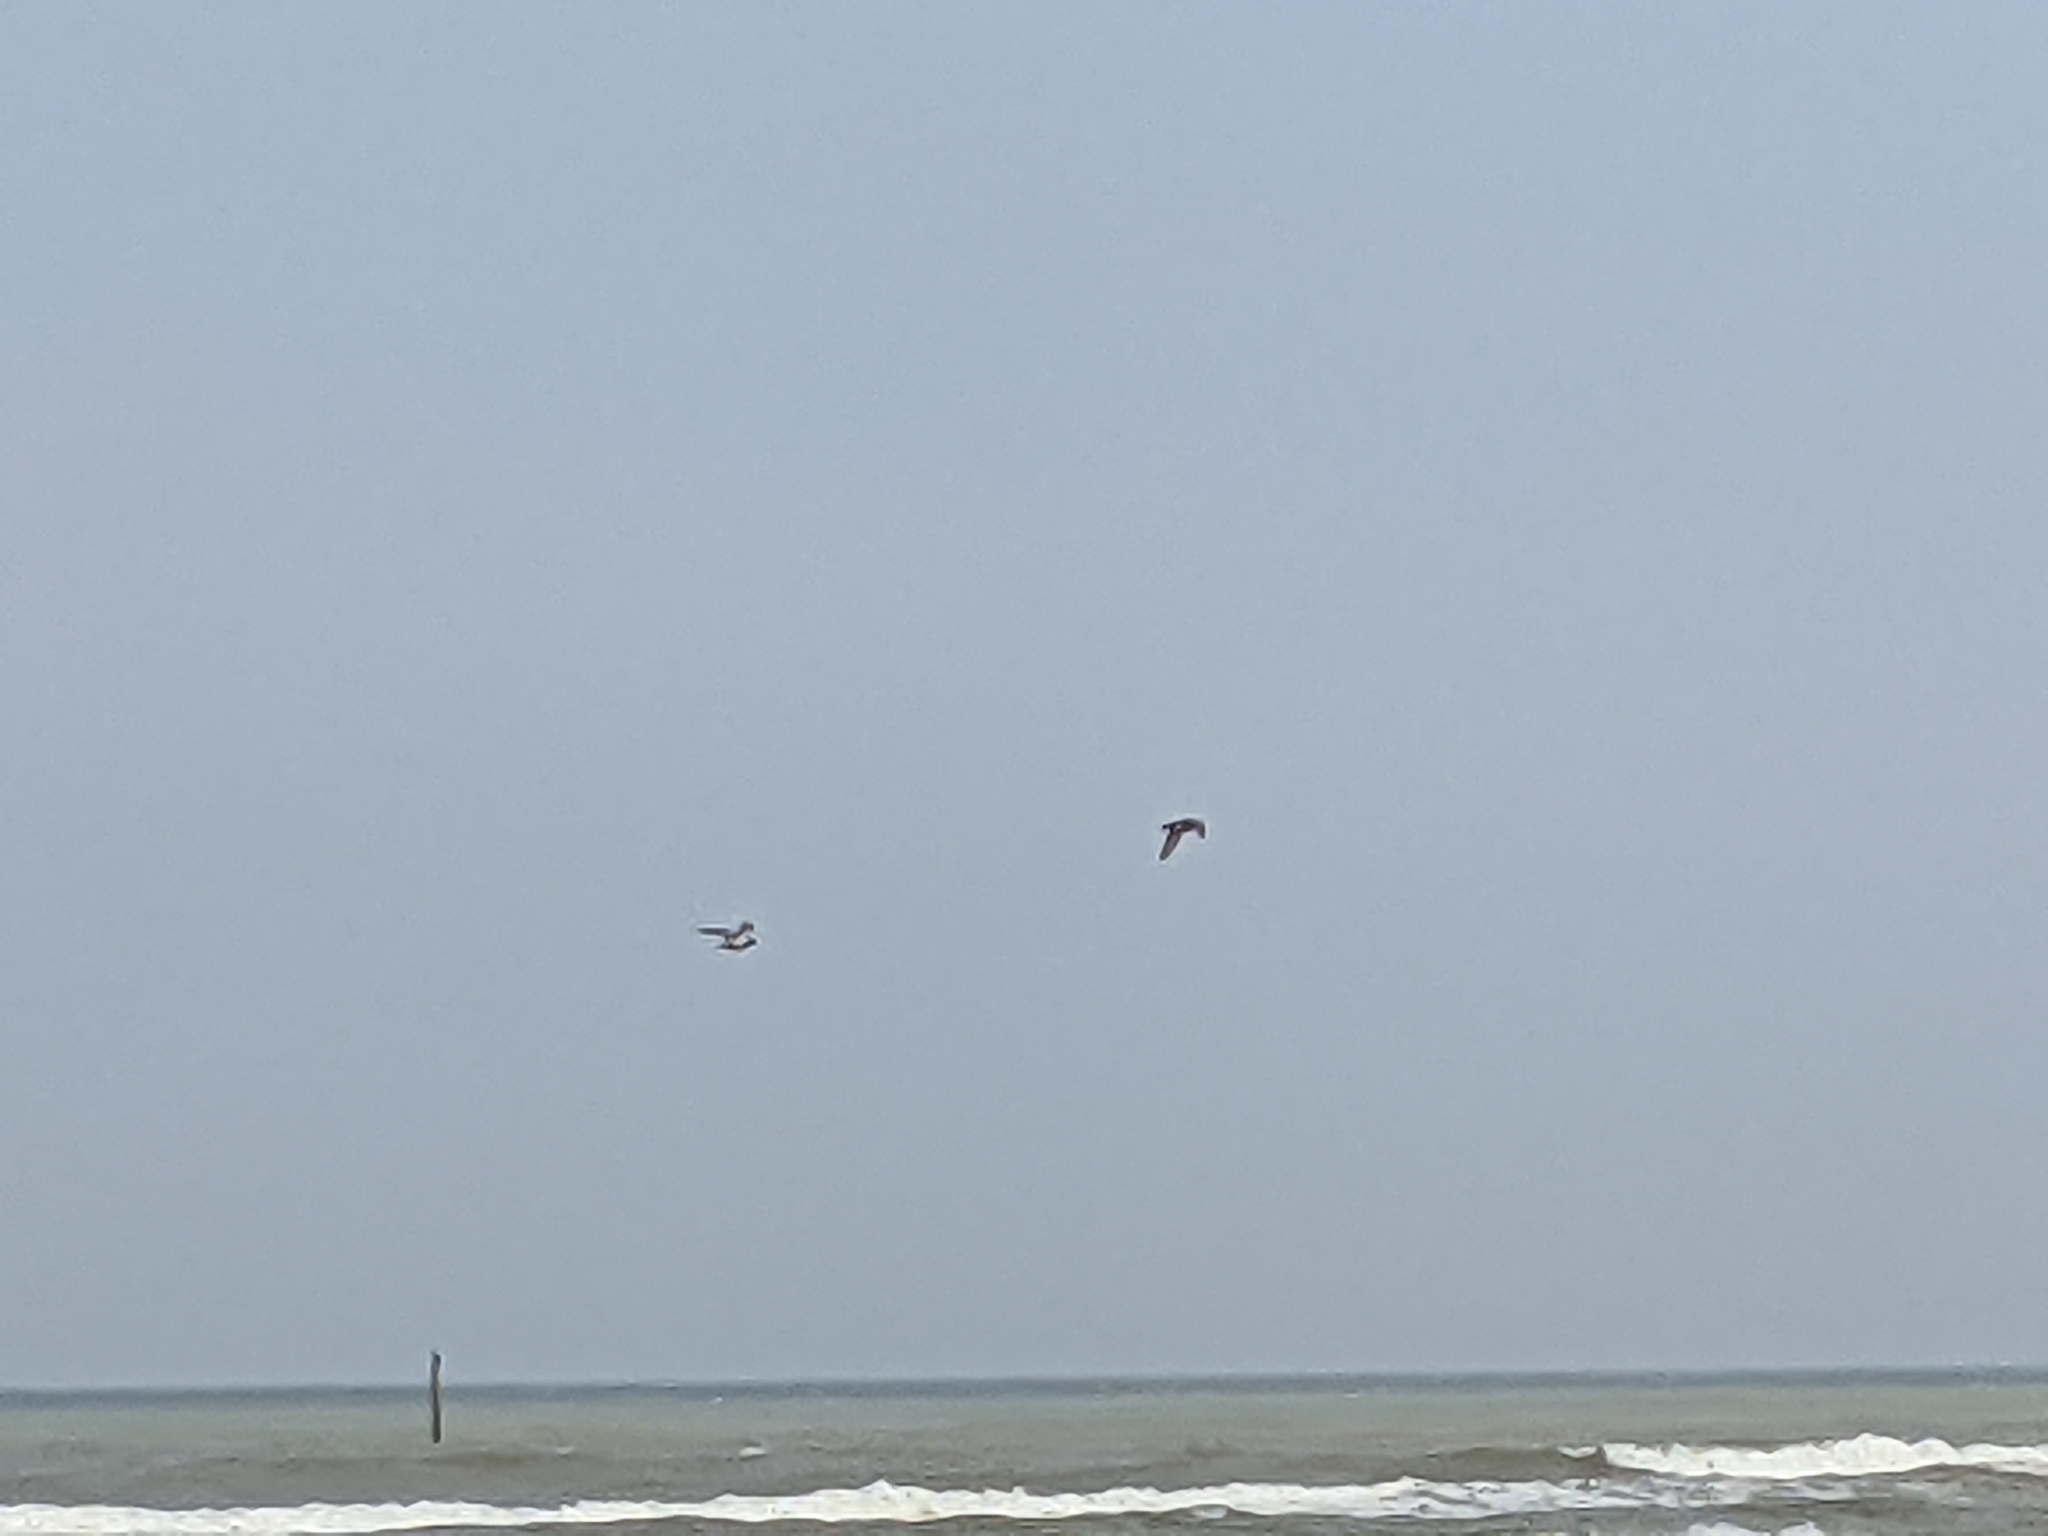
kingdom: Animalia
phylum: Chordata
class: Aves
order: Columbiformes
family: Columbidae
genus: Columba
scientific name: Columba livia
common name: Rock pigeon
